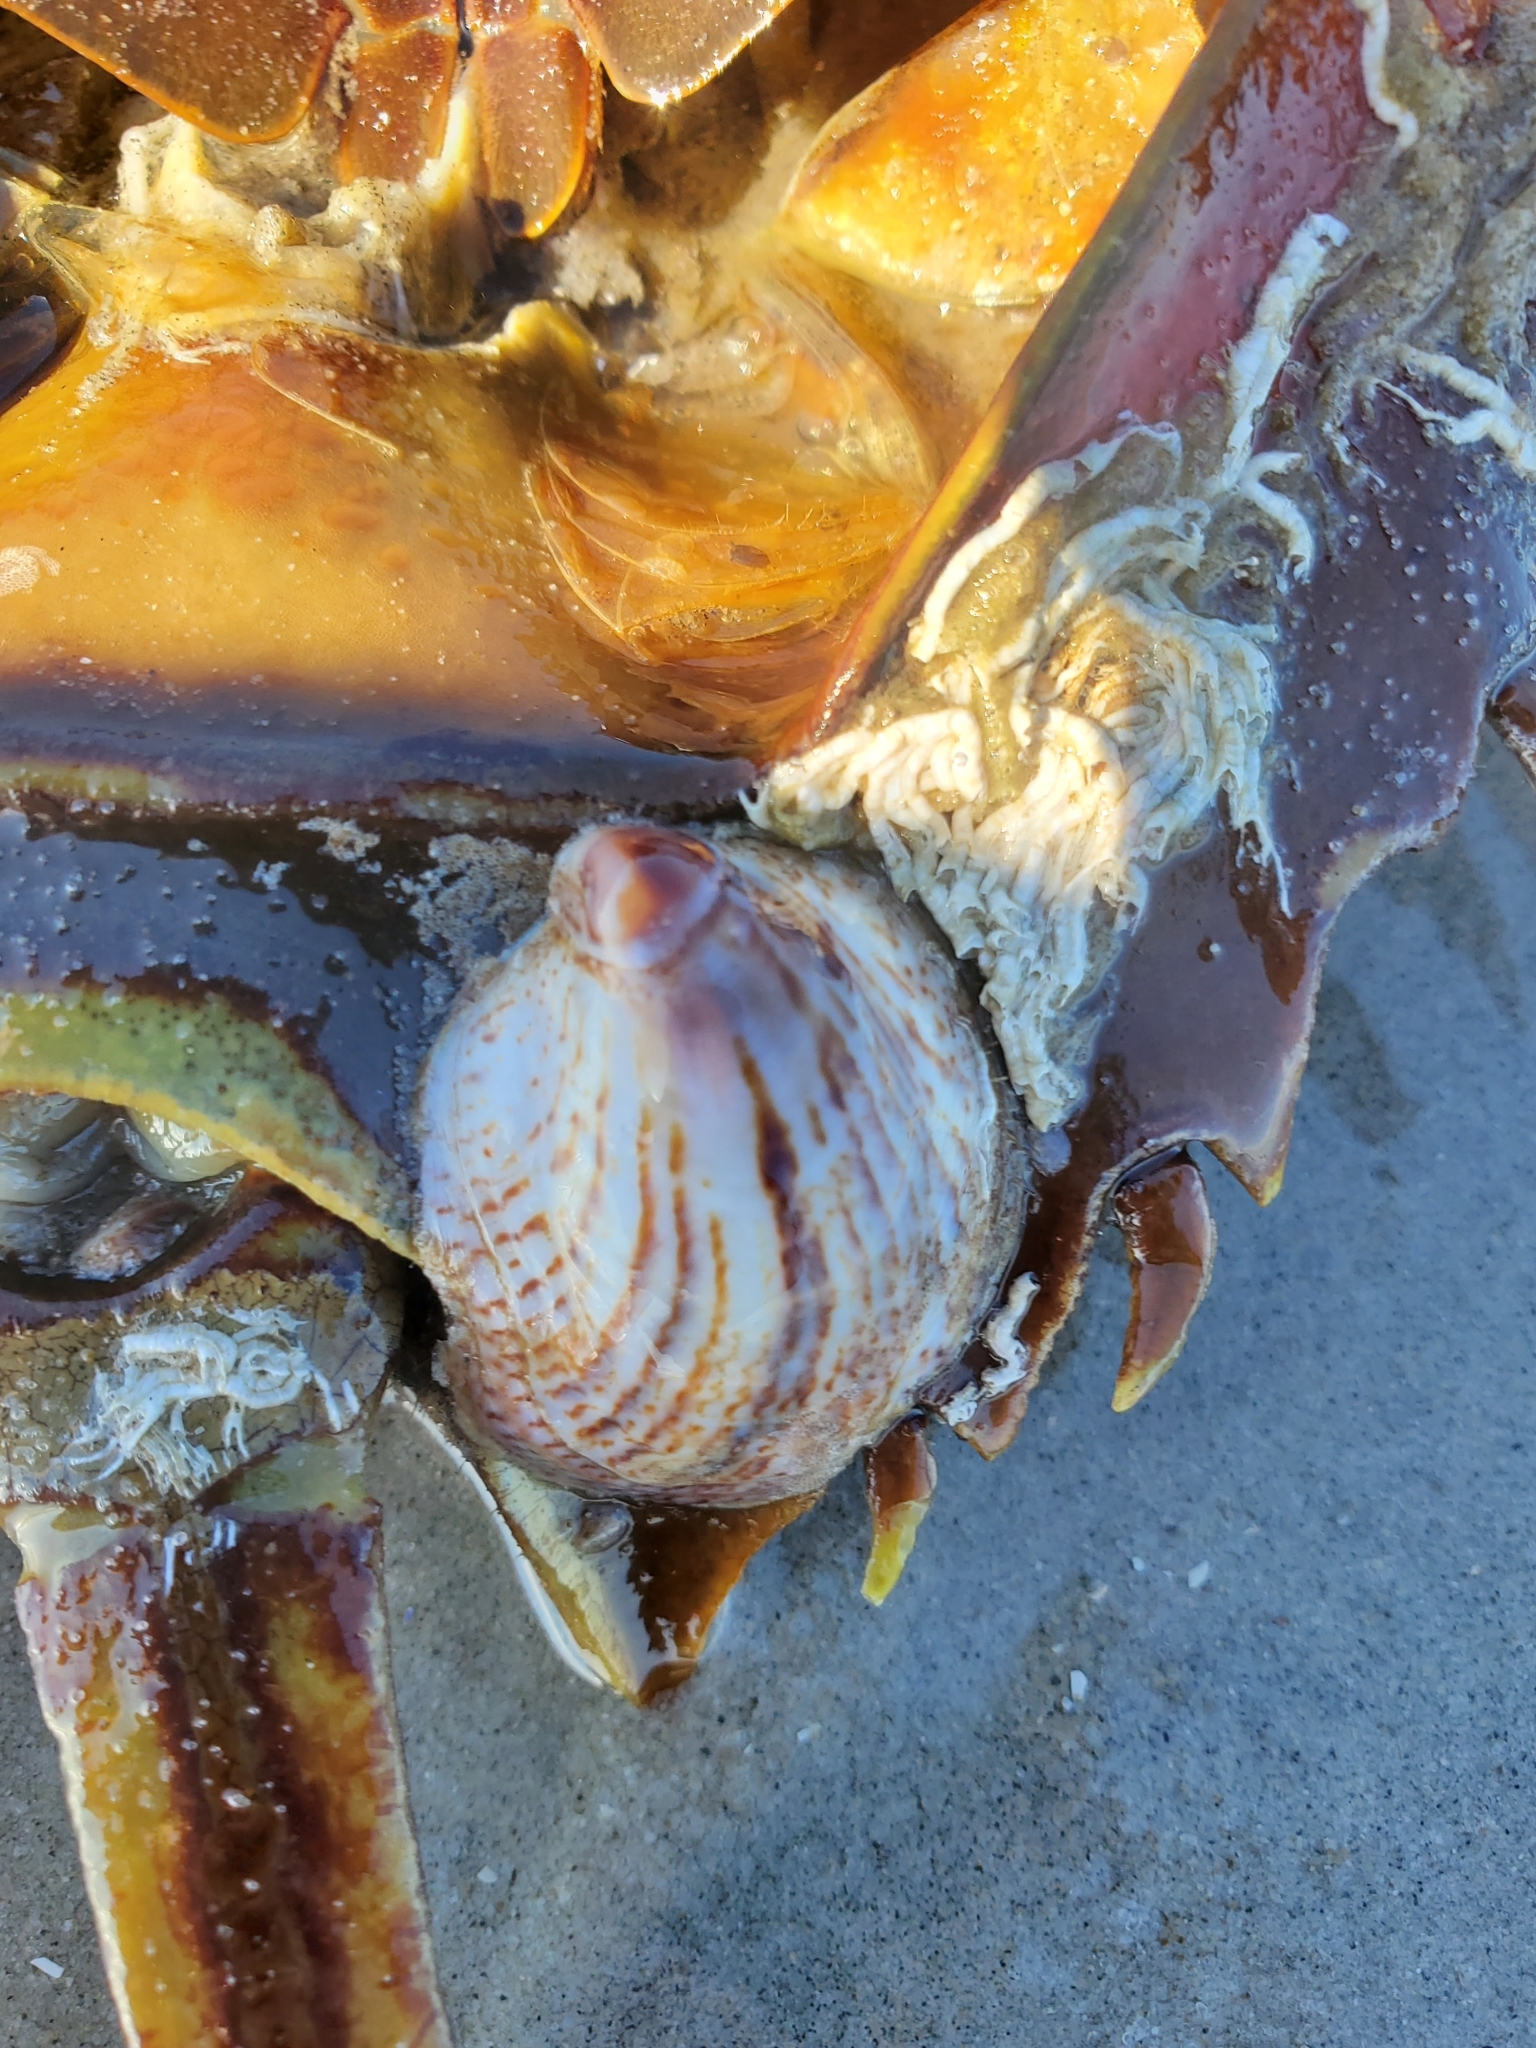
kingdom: Animalia
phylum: Mollusca
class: Gastropoda
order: Littorinimorpha
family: Calyptraeidae
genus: Crepidula
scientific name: Crepidula fornicata
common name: Slipper limpet
